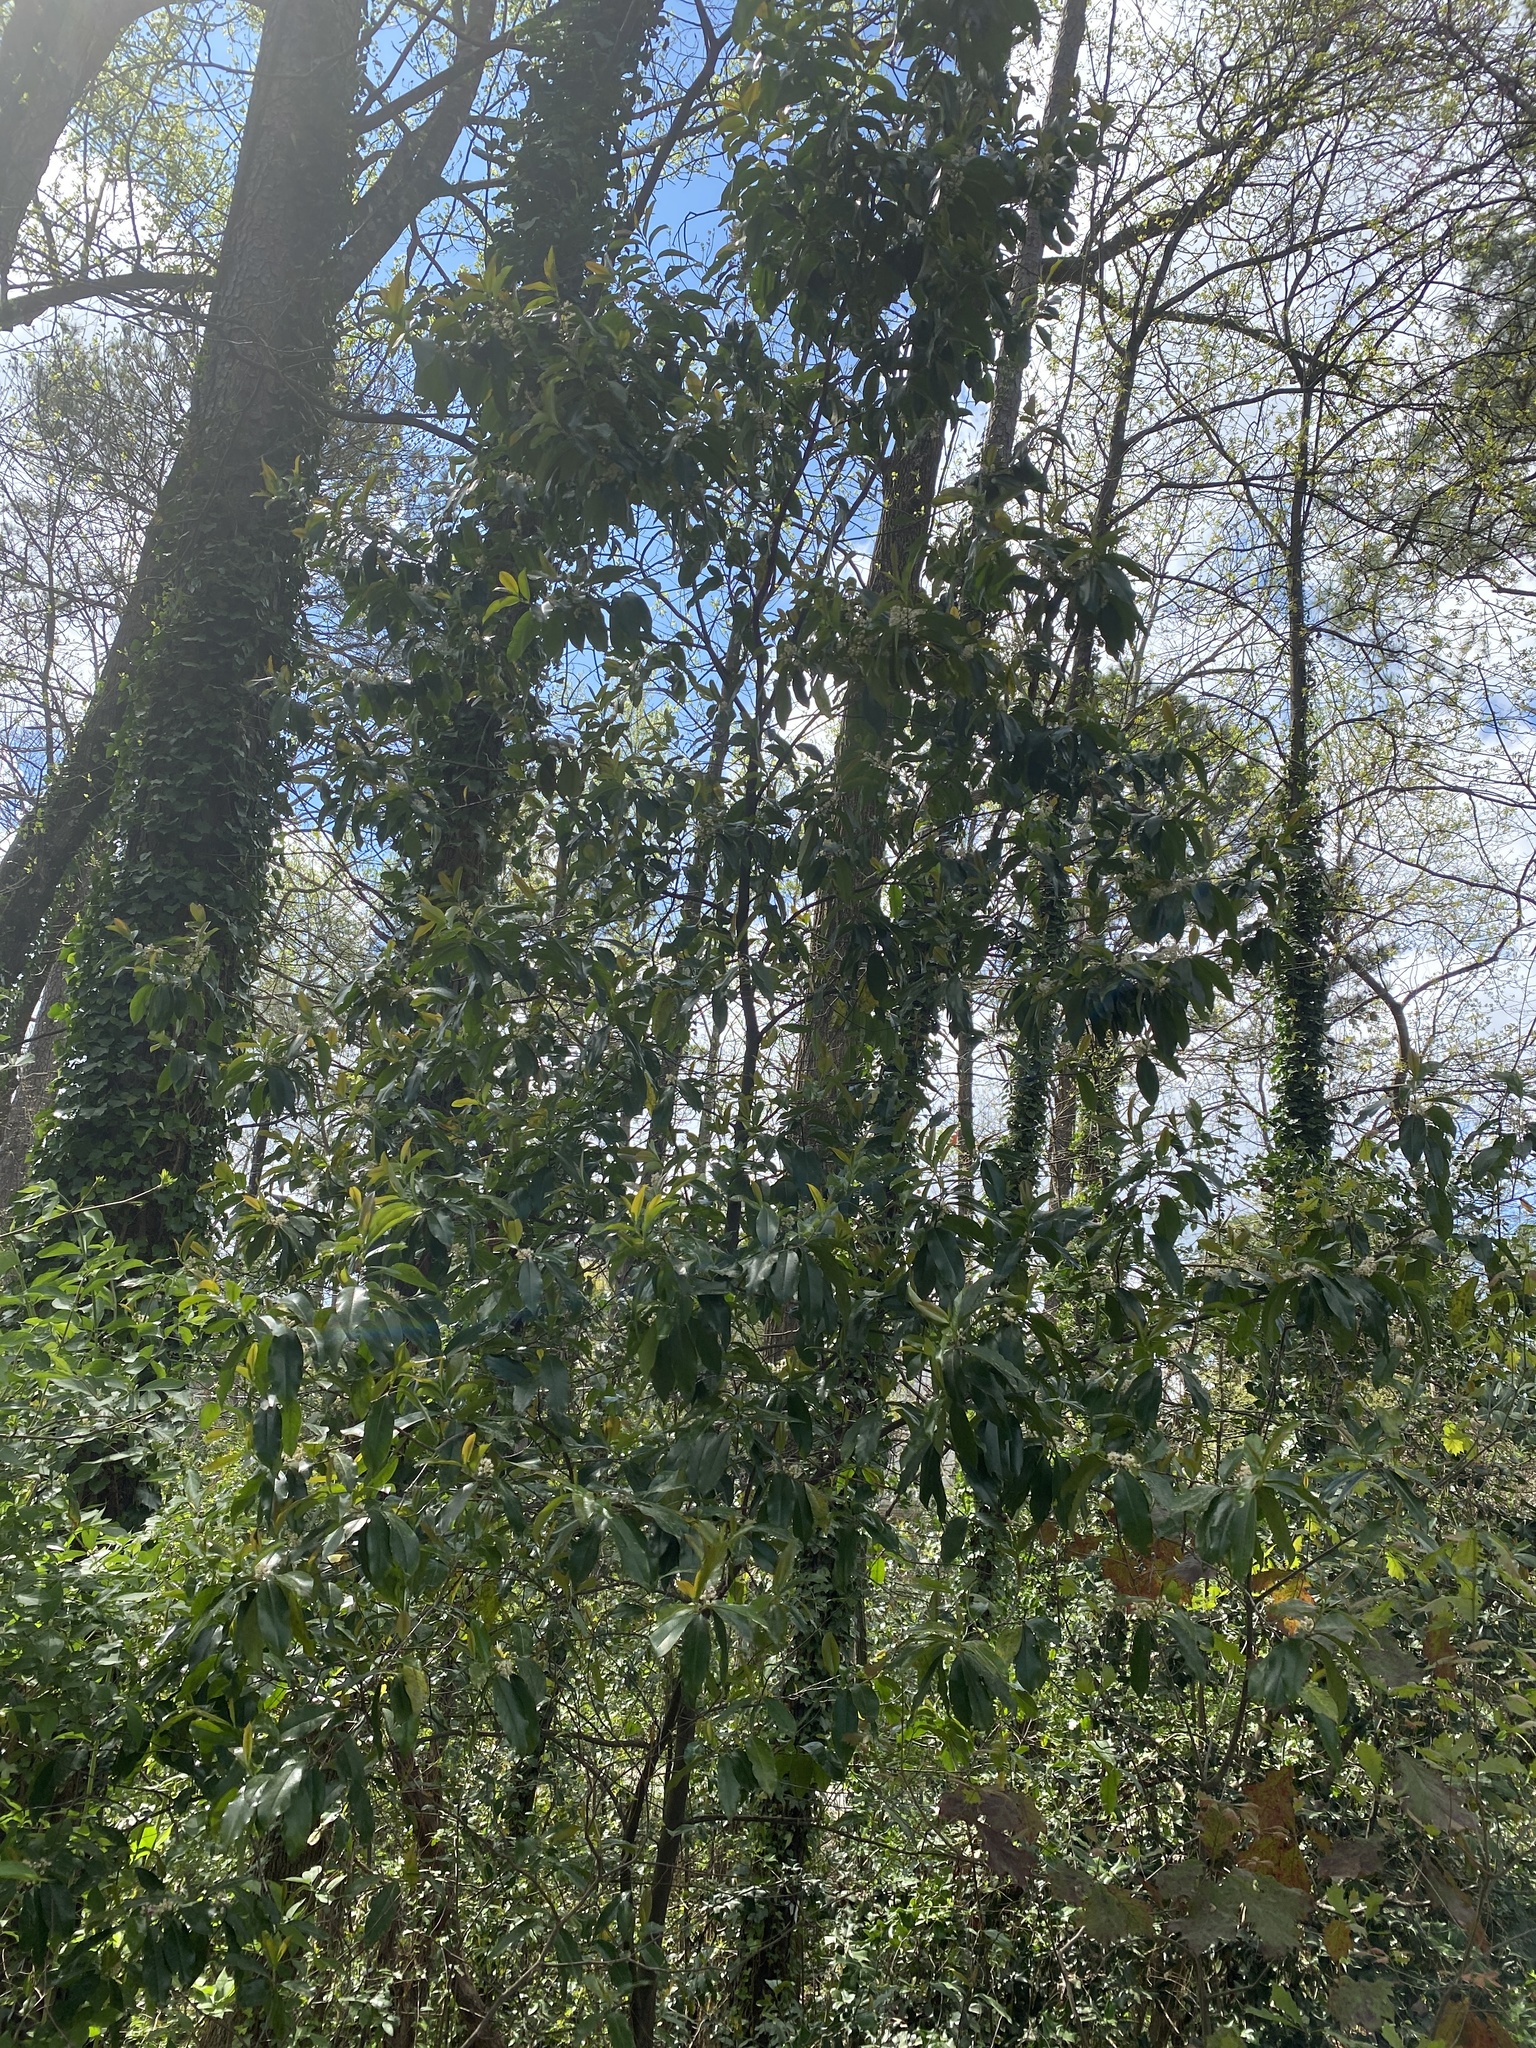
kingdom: Plantae
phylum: Tracheophyta
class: Magnoliopsida
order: Rosales
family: Rosaceae
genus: Prunus
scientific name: Prunus caroliniana
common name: Carolina laurel cherry
